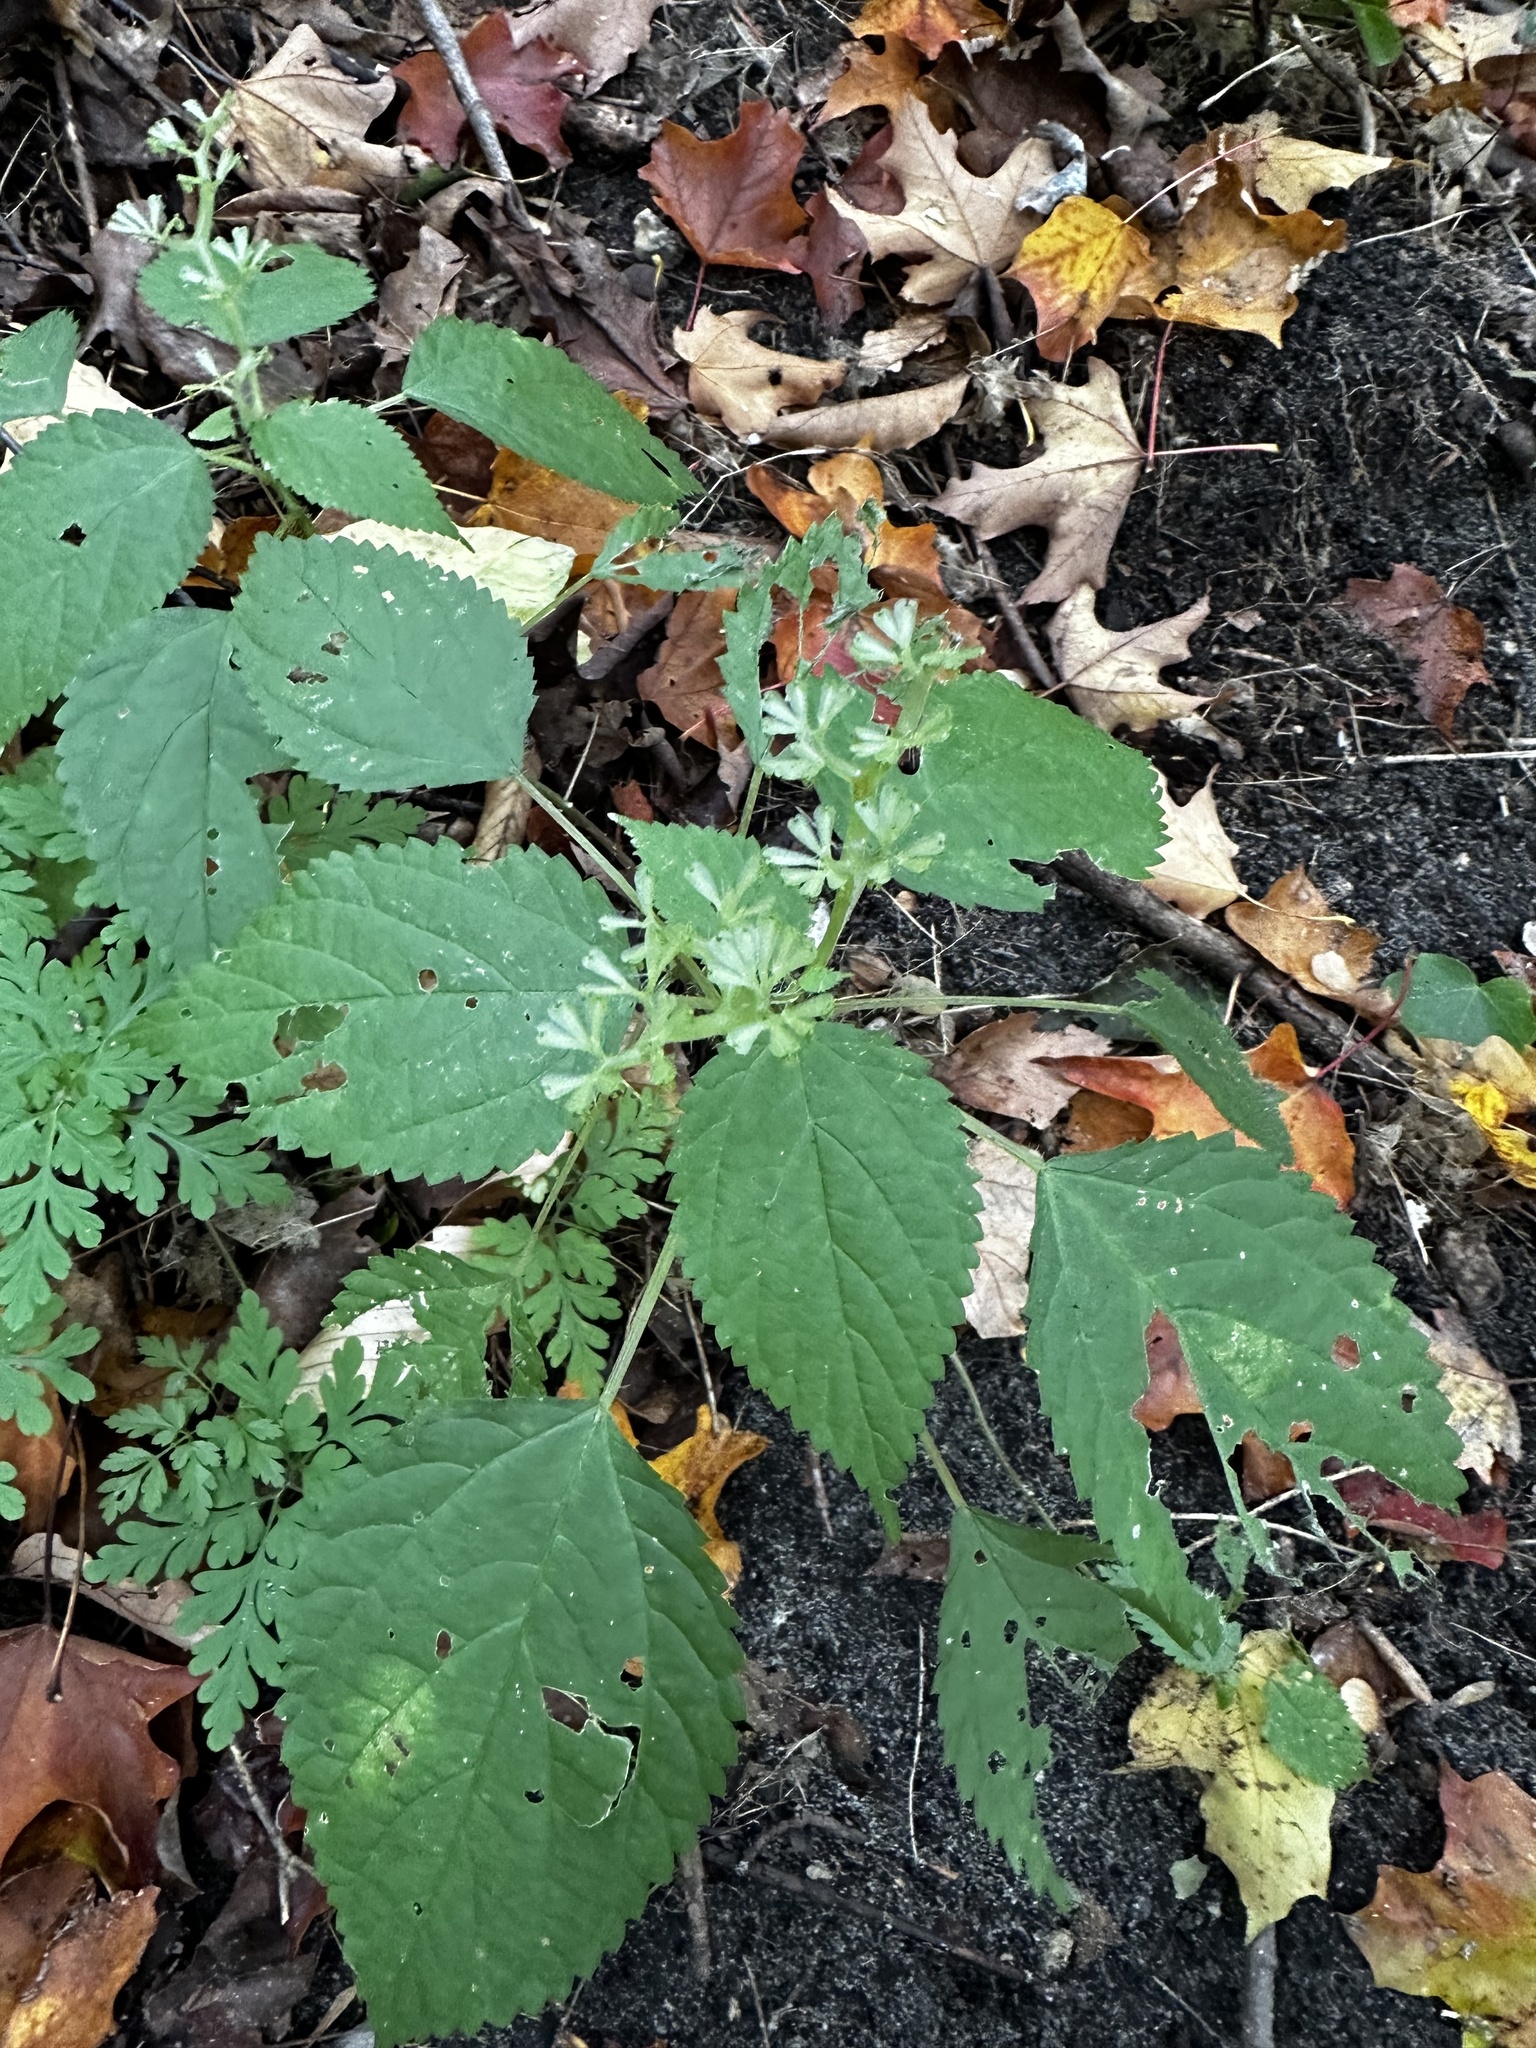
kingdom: Plantae
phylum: Tracheophyta
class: Magnoliopsida
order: Rosales
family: Urticaceae
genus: Laportea
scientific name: Laportea canadensis
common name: Canada nettle
